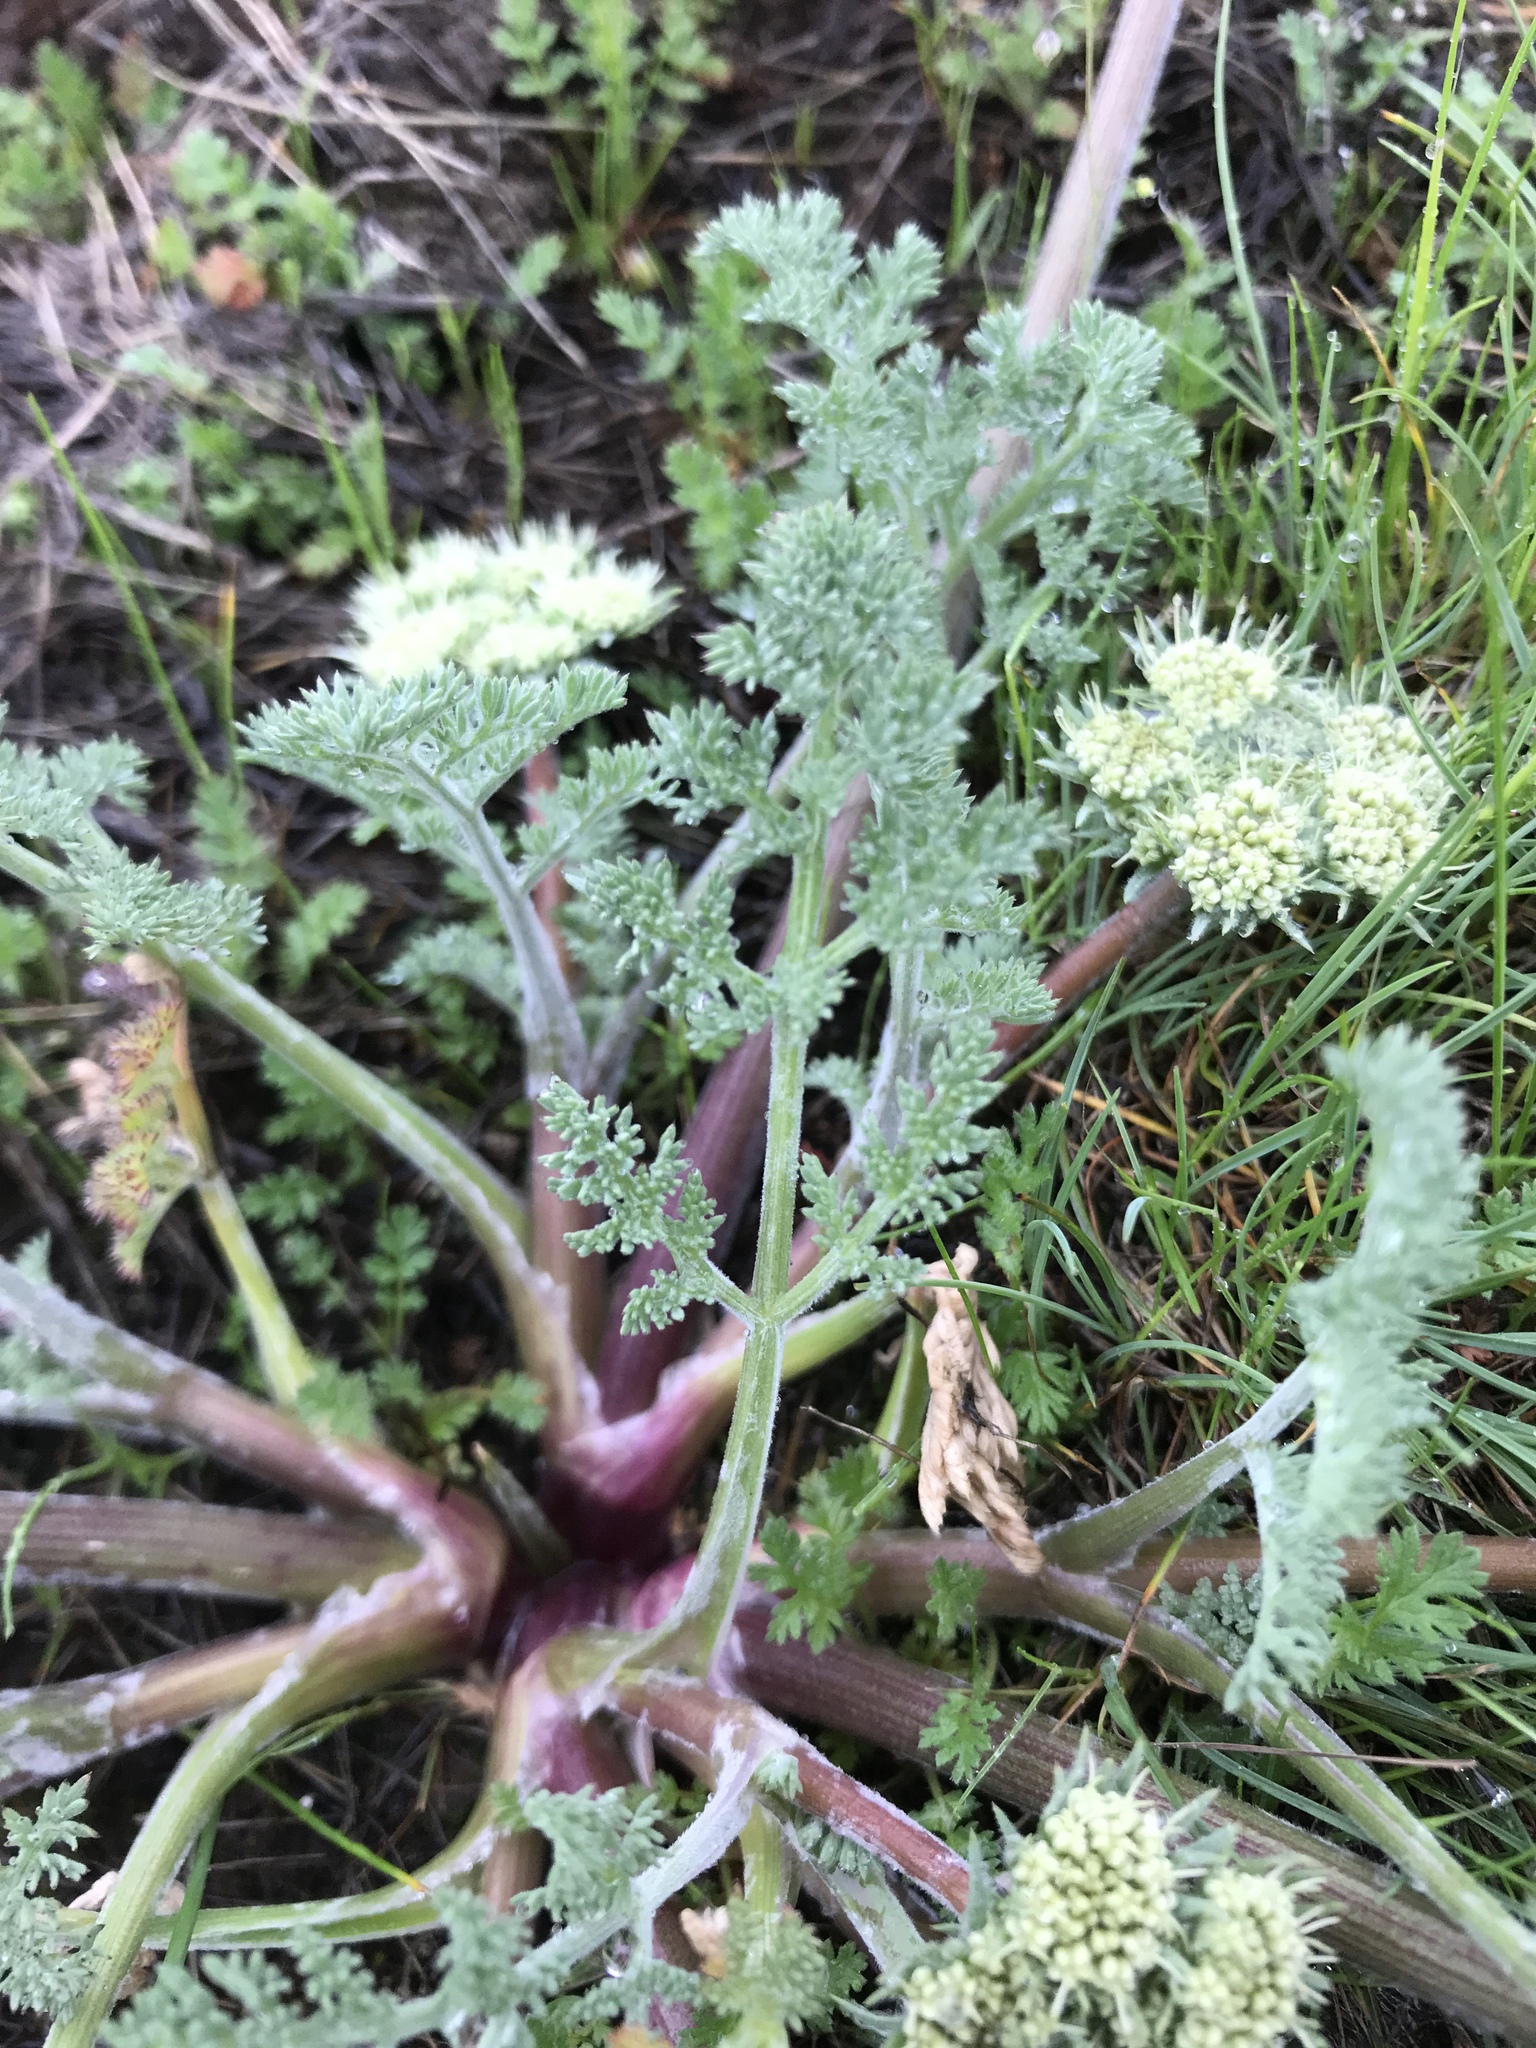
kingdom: Plantae
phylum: Tracheophyta
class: Magnoliopsida
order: Apiales
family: Apiaceae
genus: Lomatium
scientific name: Lomatium macrocarpum
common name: Big-seed biscuitroot
